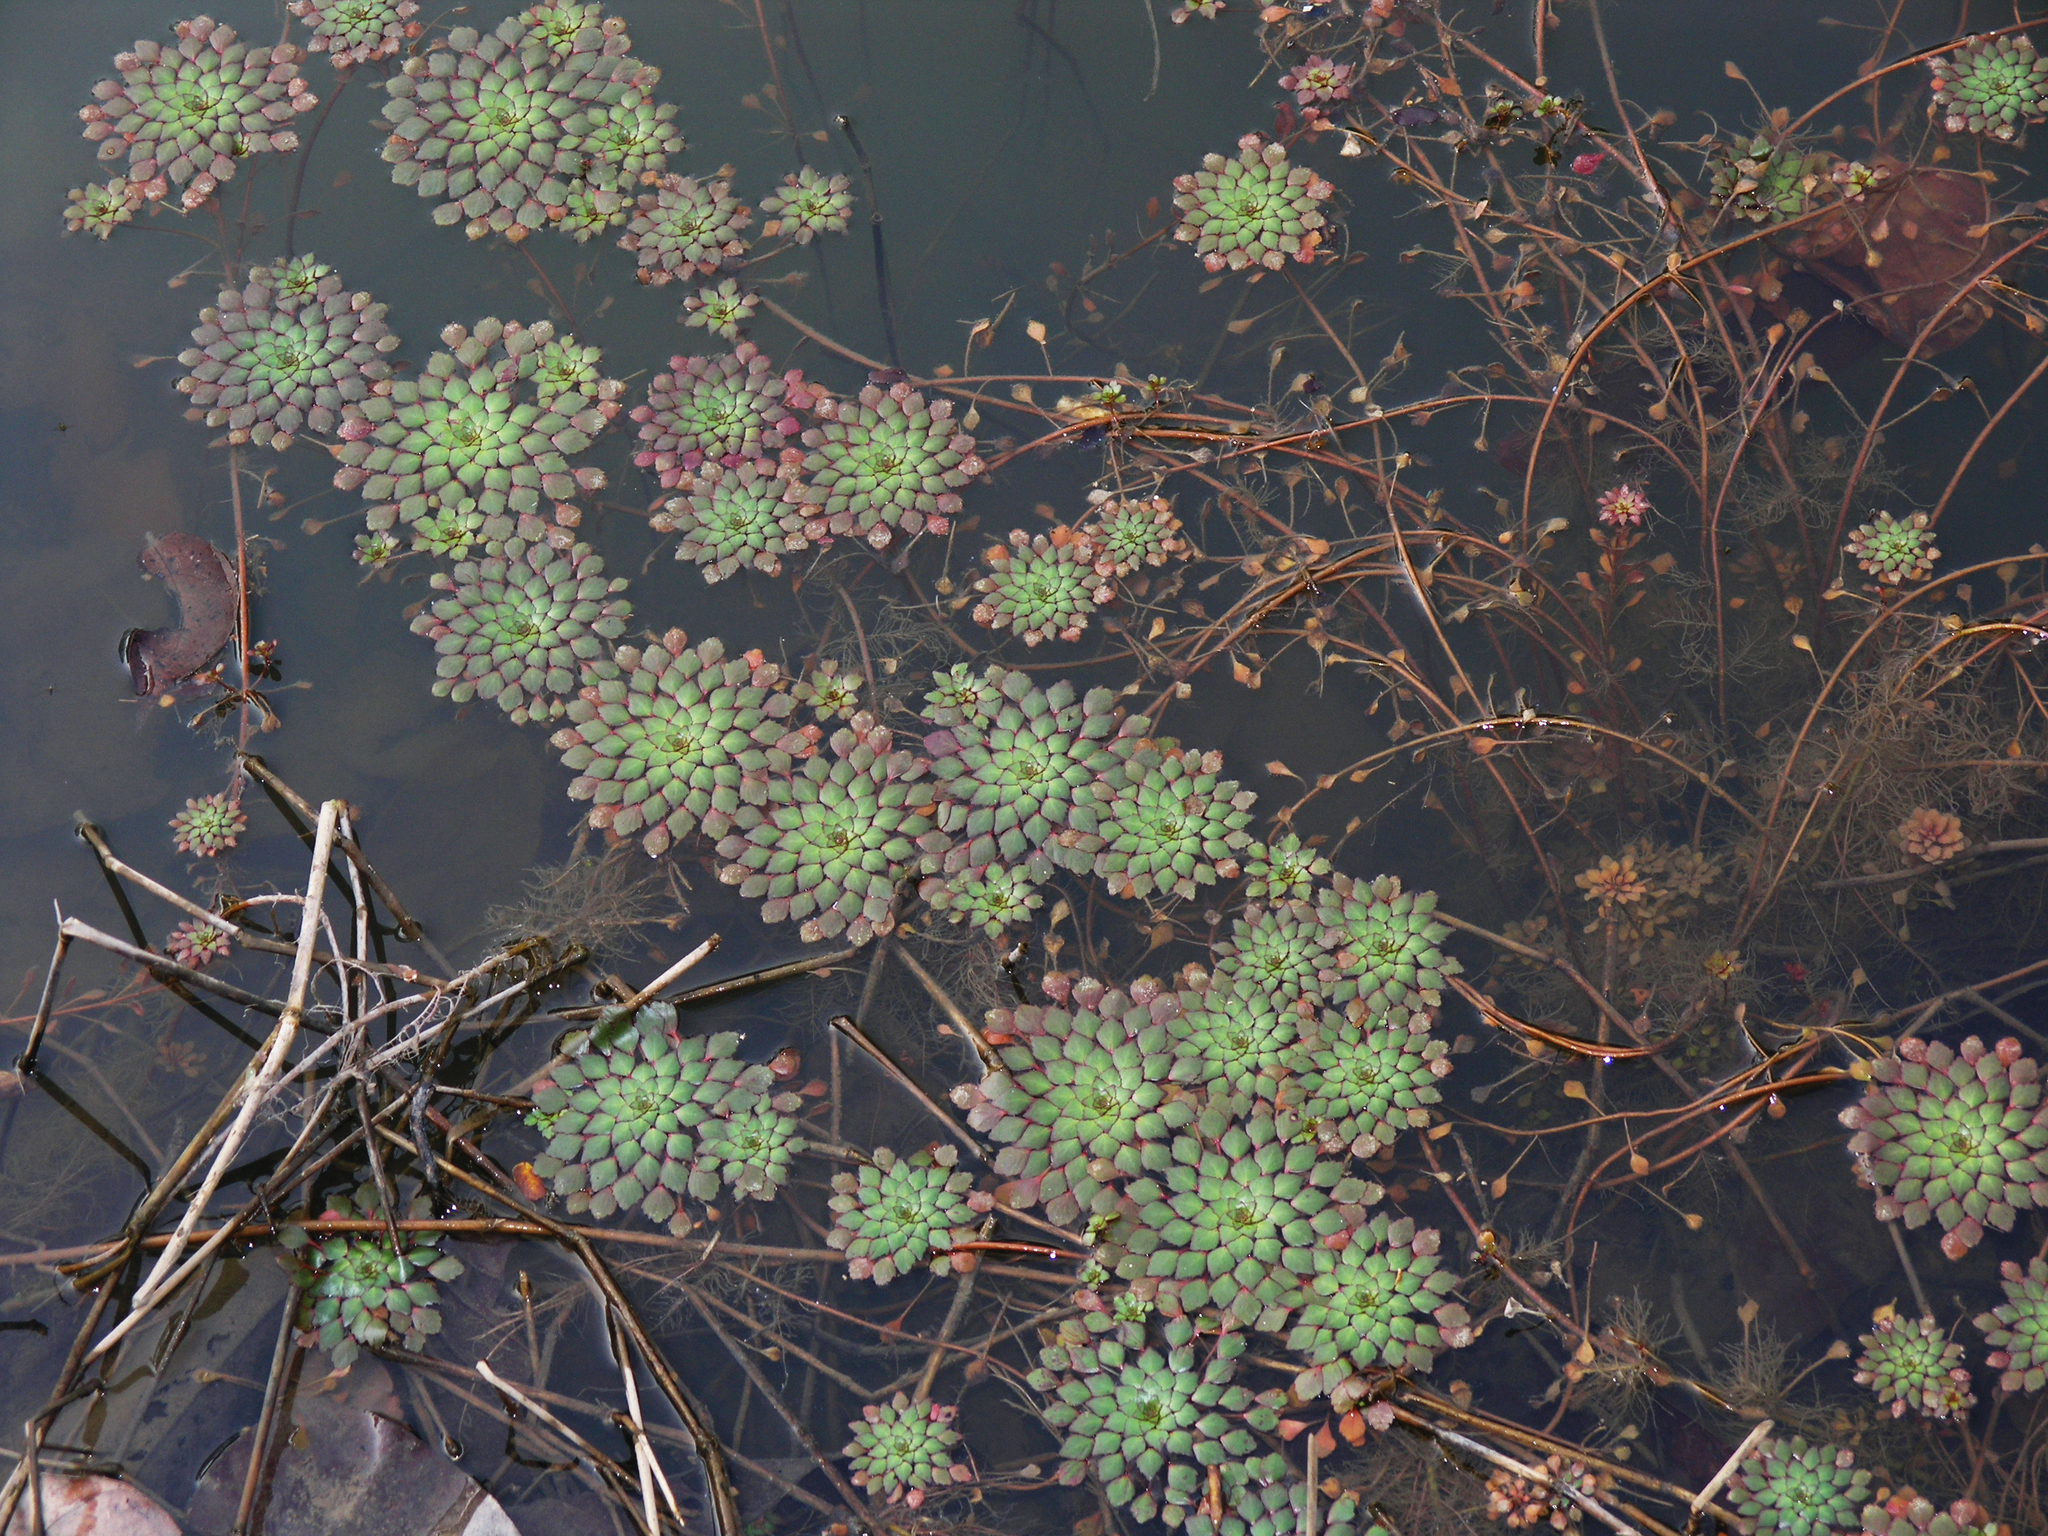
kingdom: Plantae
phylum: Tracheophyta
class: Magnoliopsida
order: Myrtales
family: Onagraceae
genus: Ludwigia
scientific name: Ludwigia sedioides
